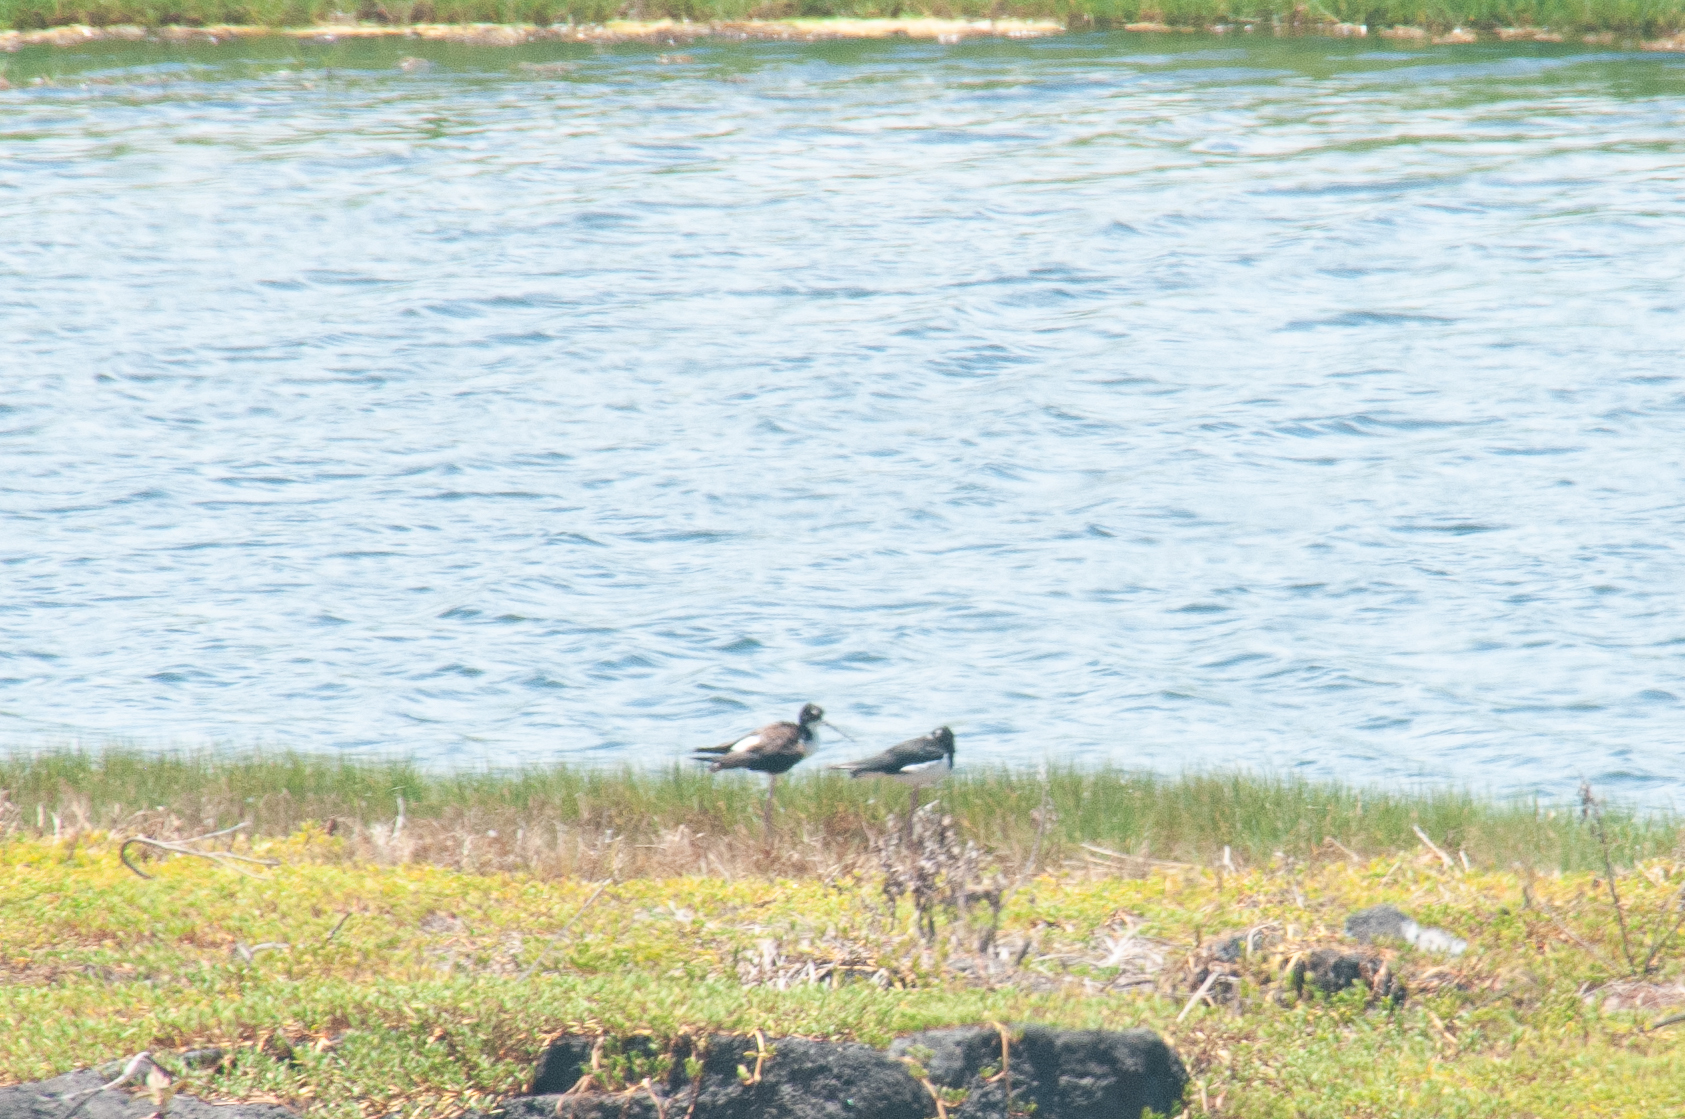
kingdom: Animalia
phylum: Chordata
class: Aves
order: Charadriiformes
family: Recurvirostridae
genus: Himantopus
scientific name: Himantopus mexicanus
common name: Black-necked stilt
